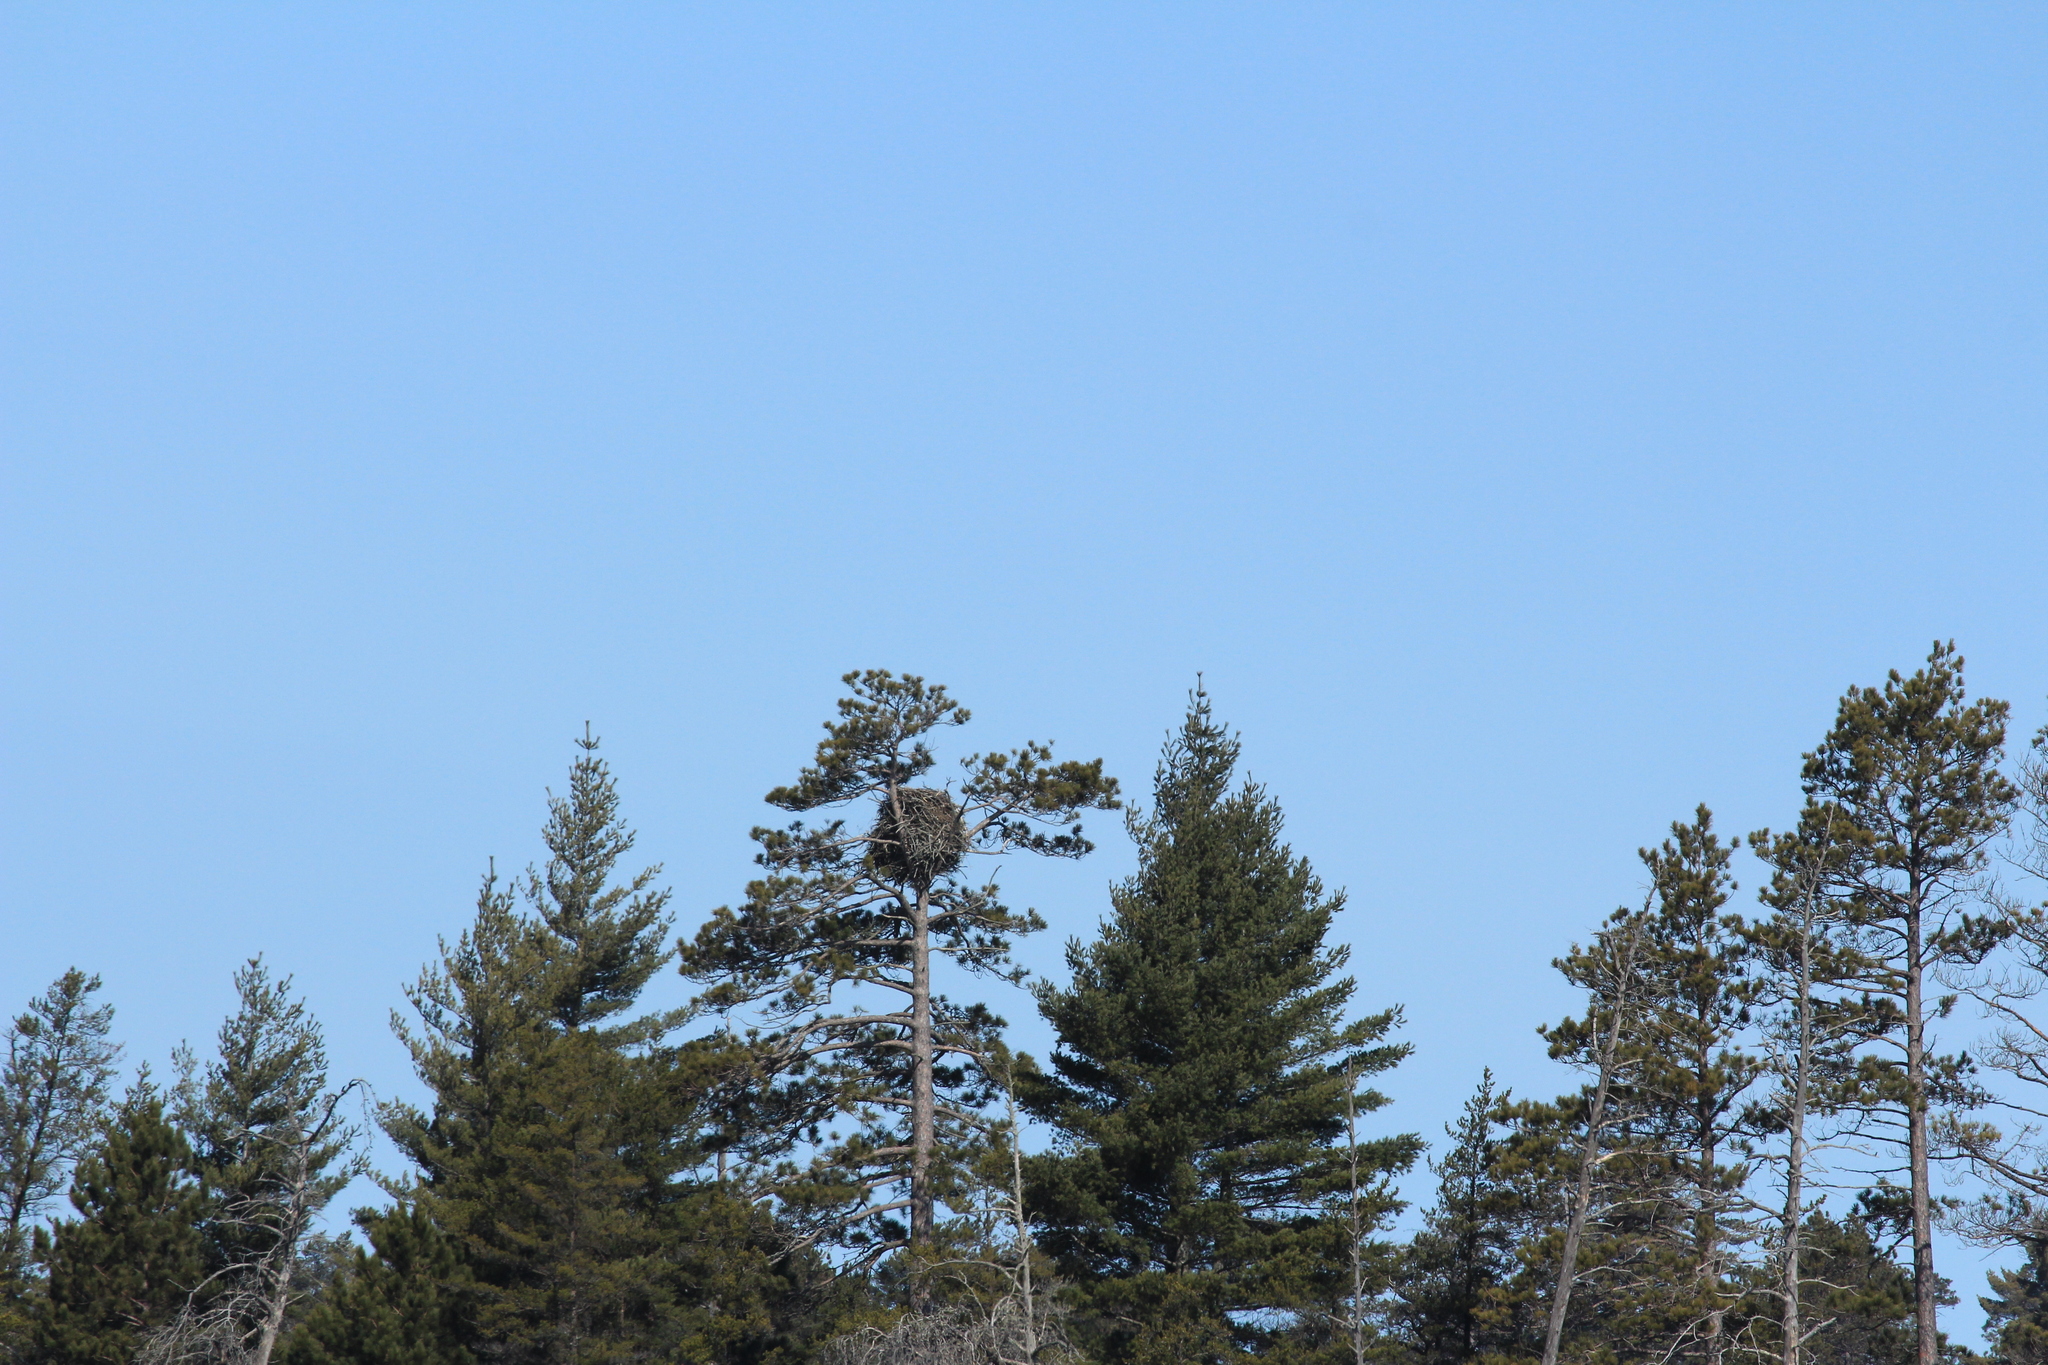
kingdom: Animalia
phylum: Chordata
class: Aves
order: Accipitriformes
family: Accipitridae
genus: Haliaeetus
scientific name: Haliaeetus leucocephalus
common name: Bald eagle
